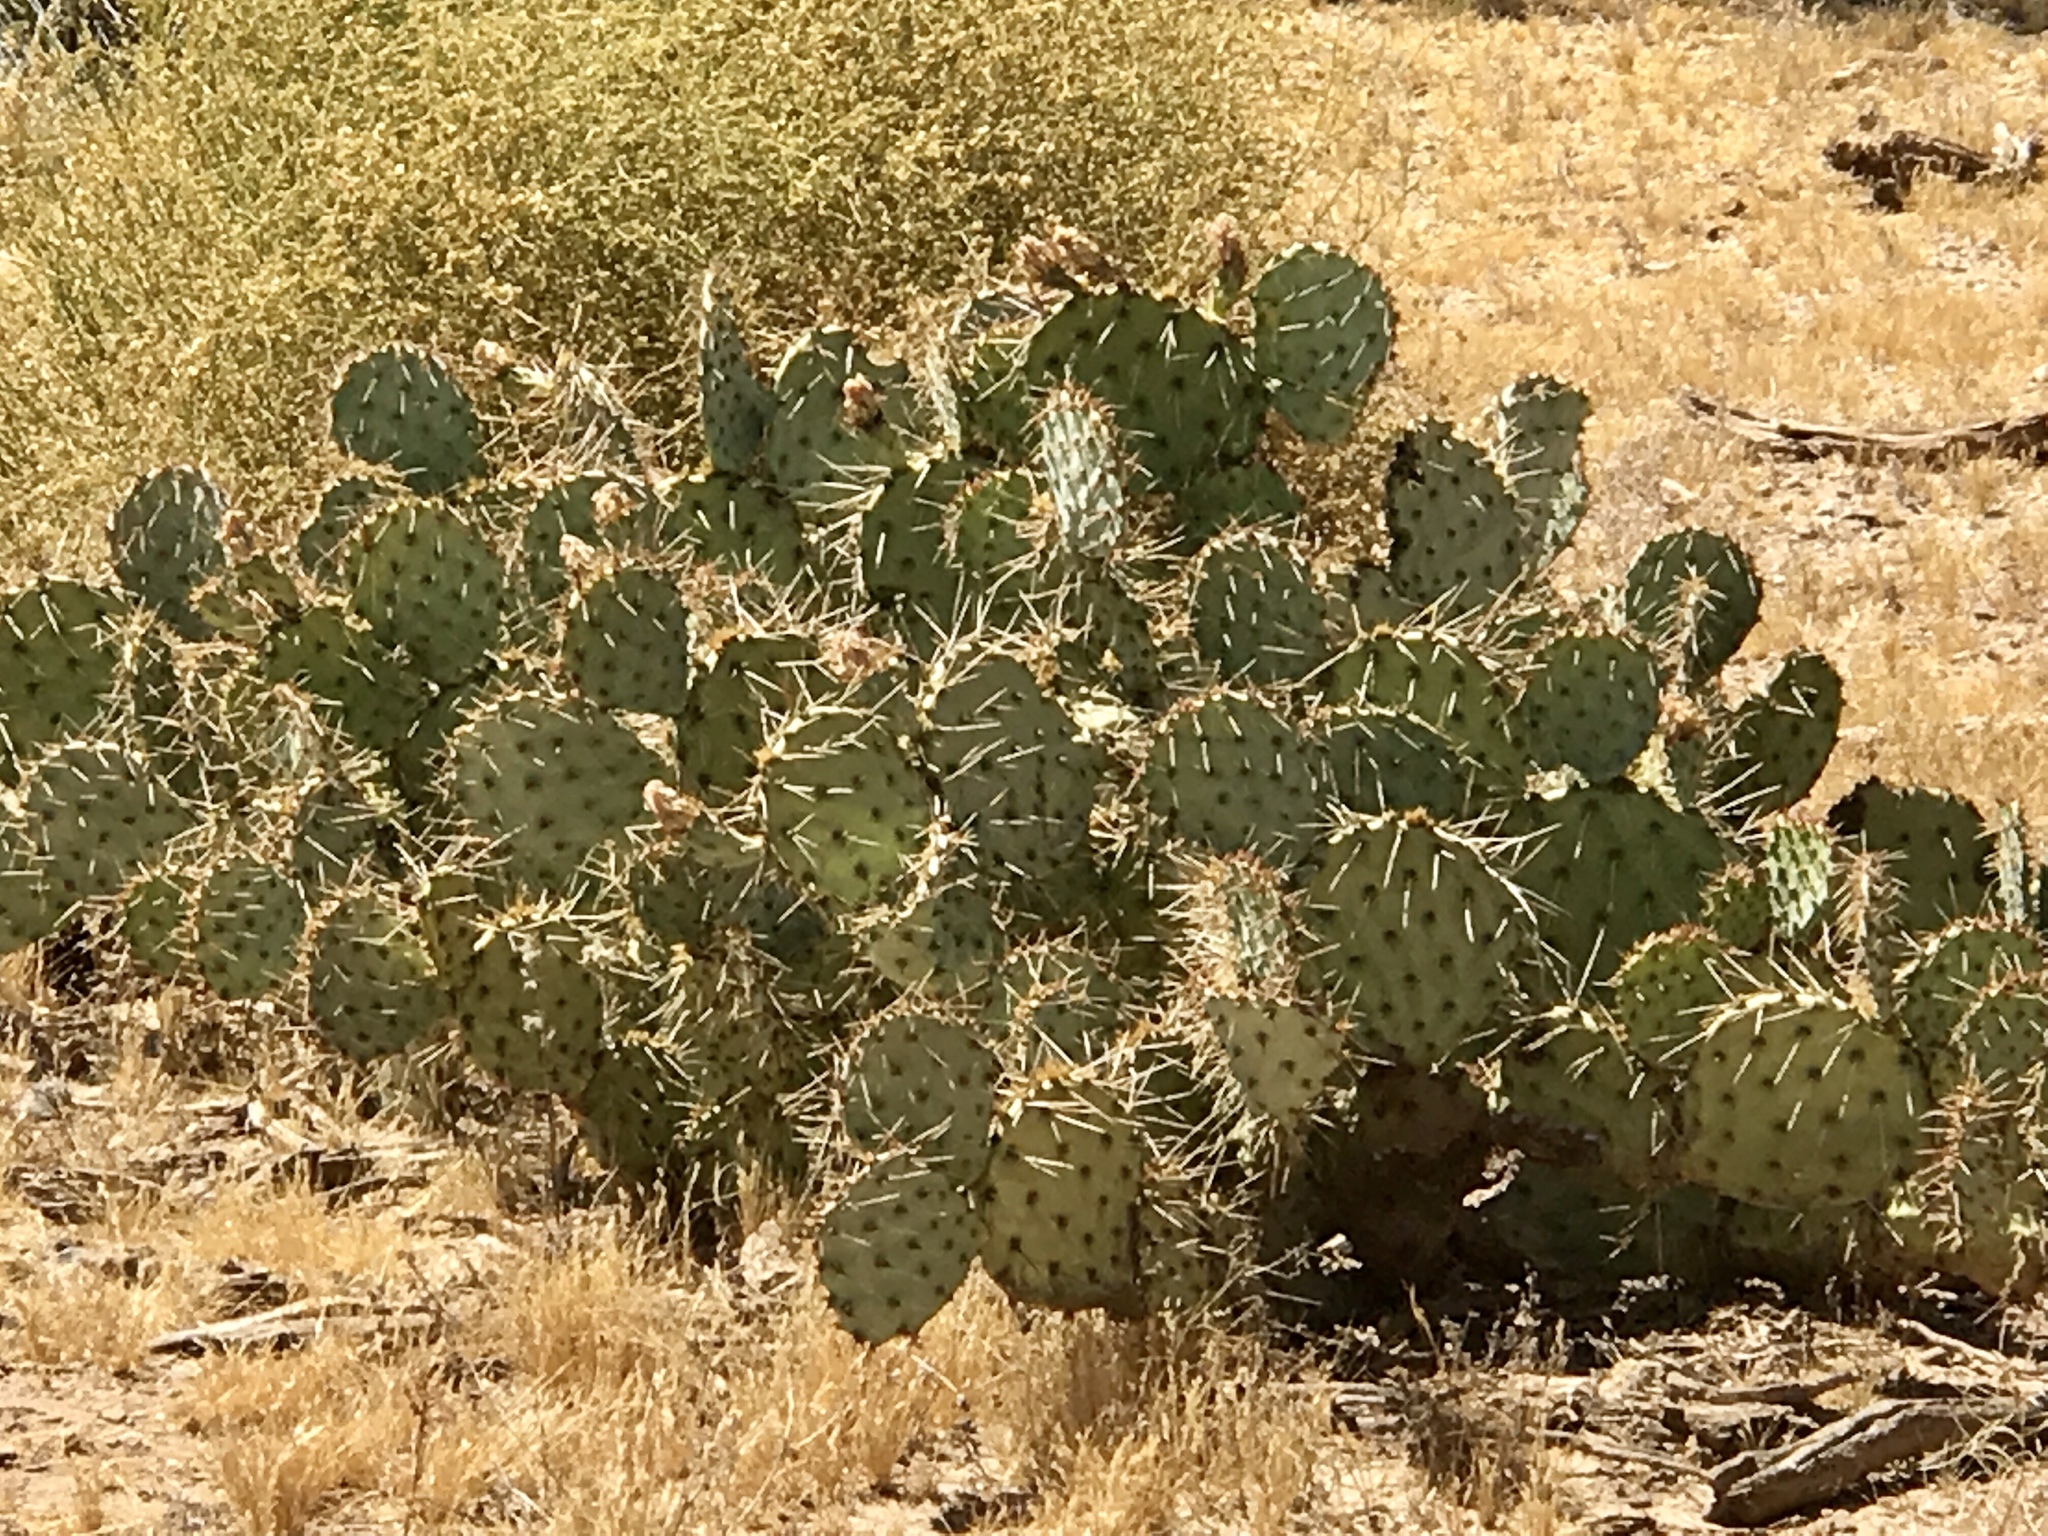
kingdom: Plantae
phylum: Tracheophyta
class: Magnoliopsida
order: Caryophyllales
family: Cactaceae
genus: Opuntia
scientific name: Opuntia phaeacantha
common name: New mexico prickly-pear
